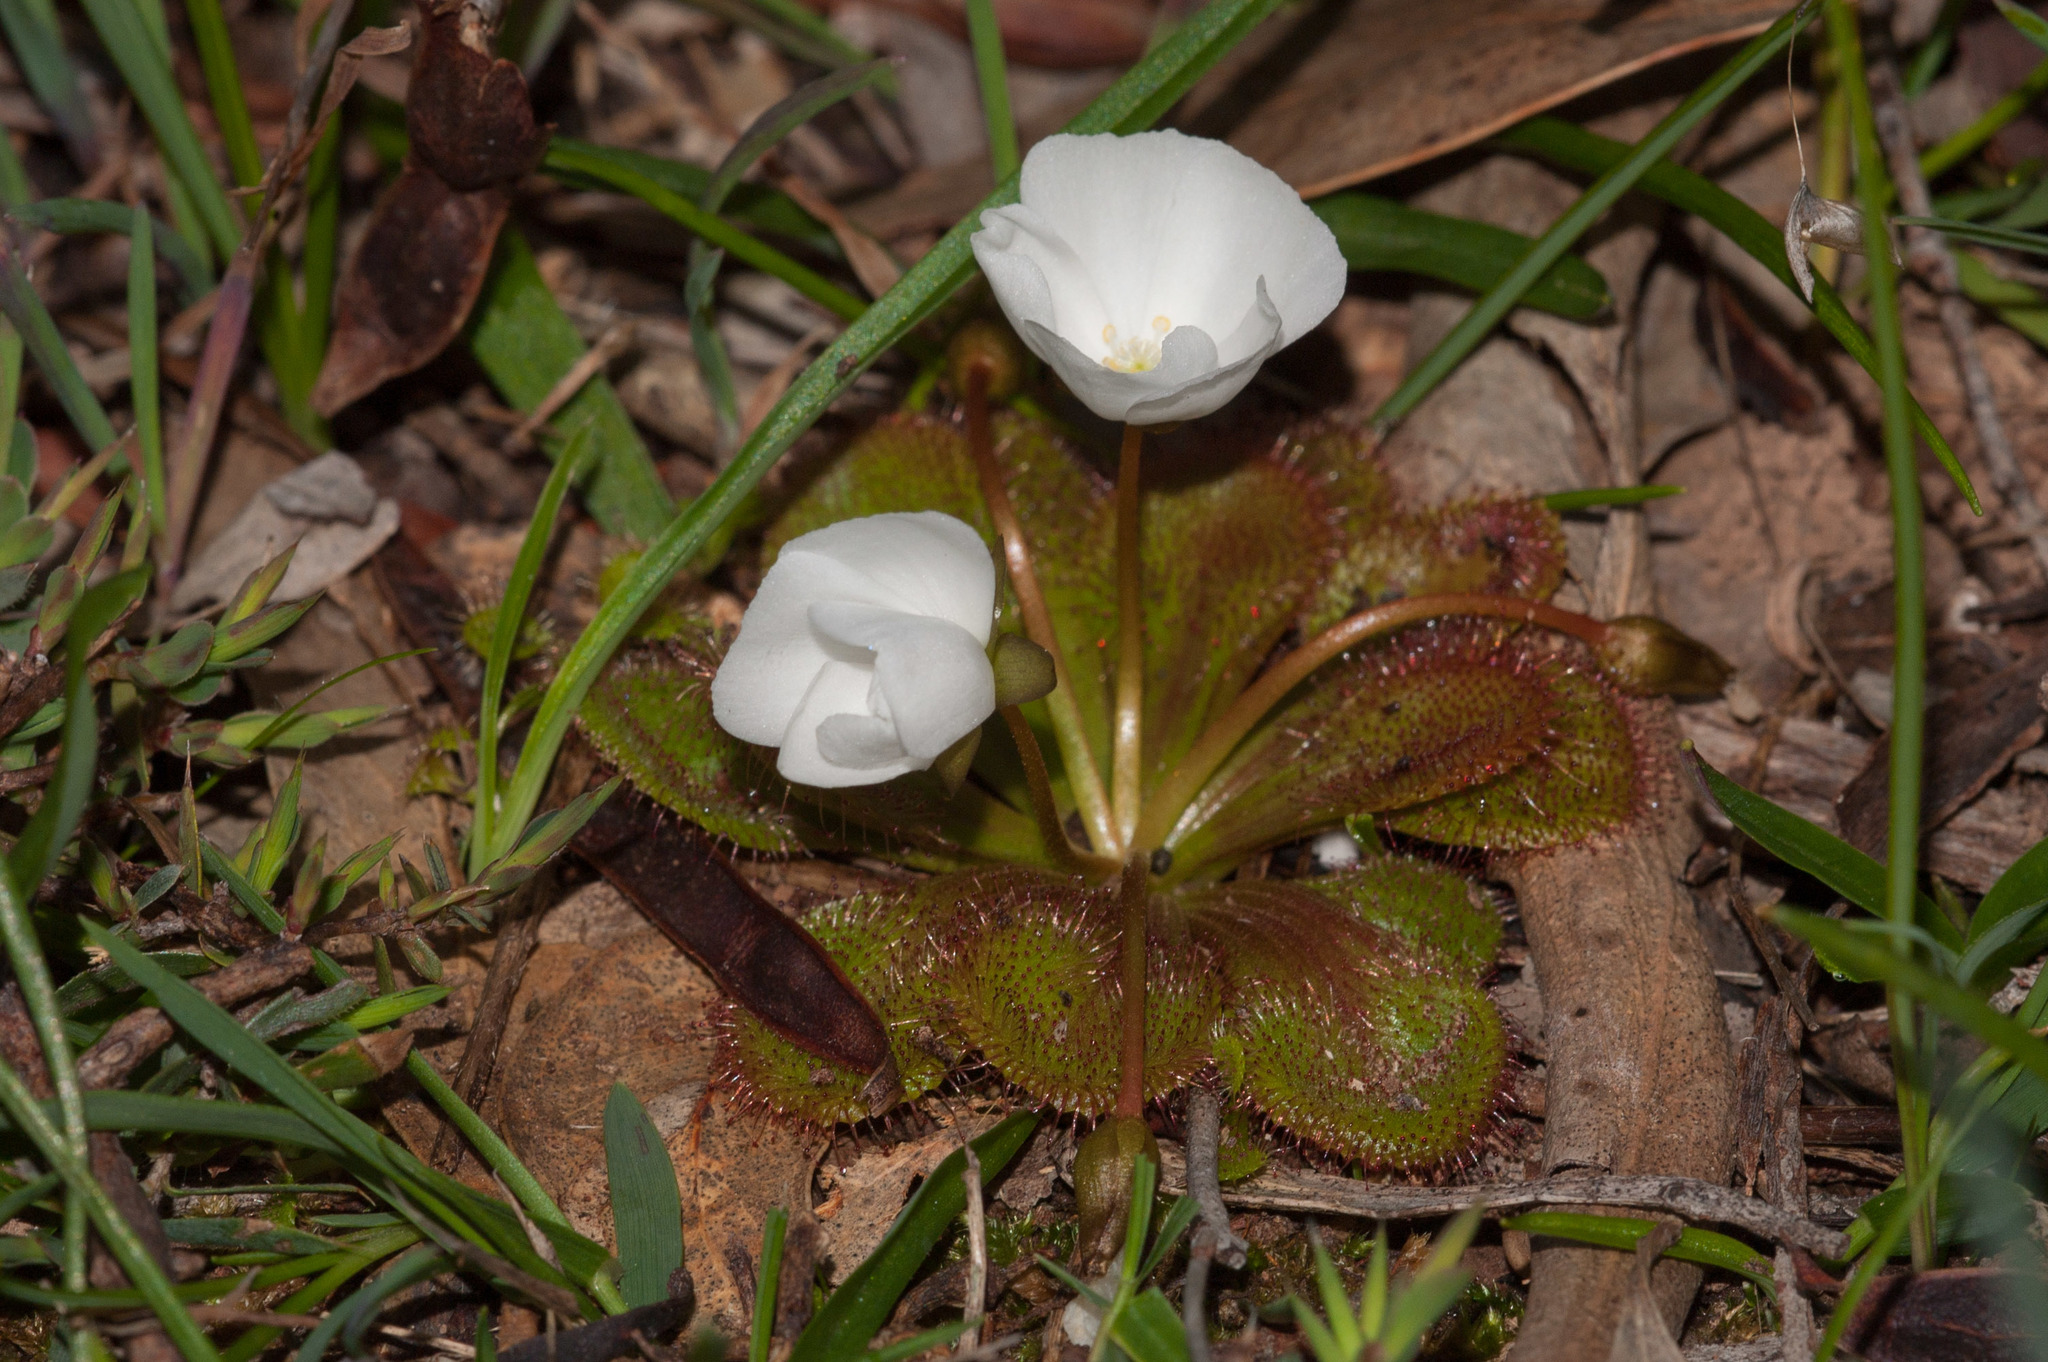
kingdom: Plantae
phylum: Tracheophyta
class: Magnoliopsida
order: Caryophyllales
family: Droseraceae
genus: Drosera
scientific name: Drosera whittakeri
